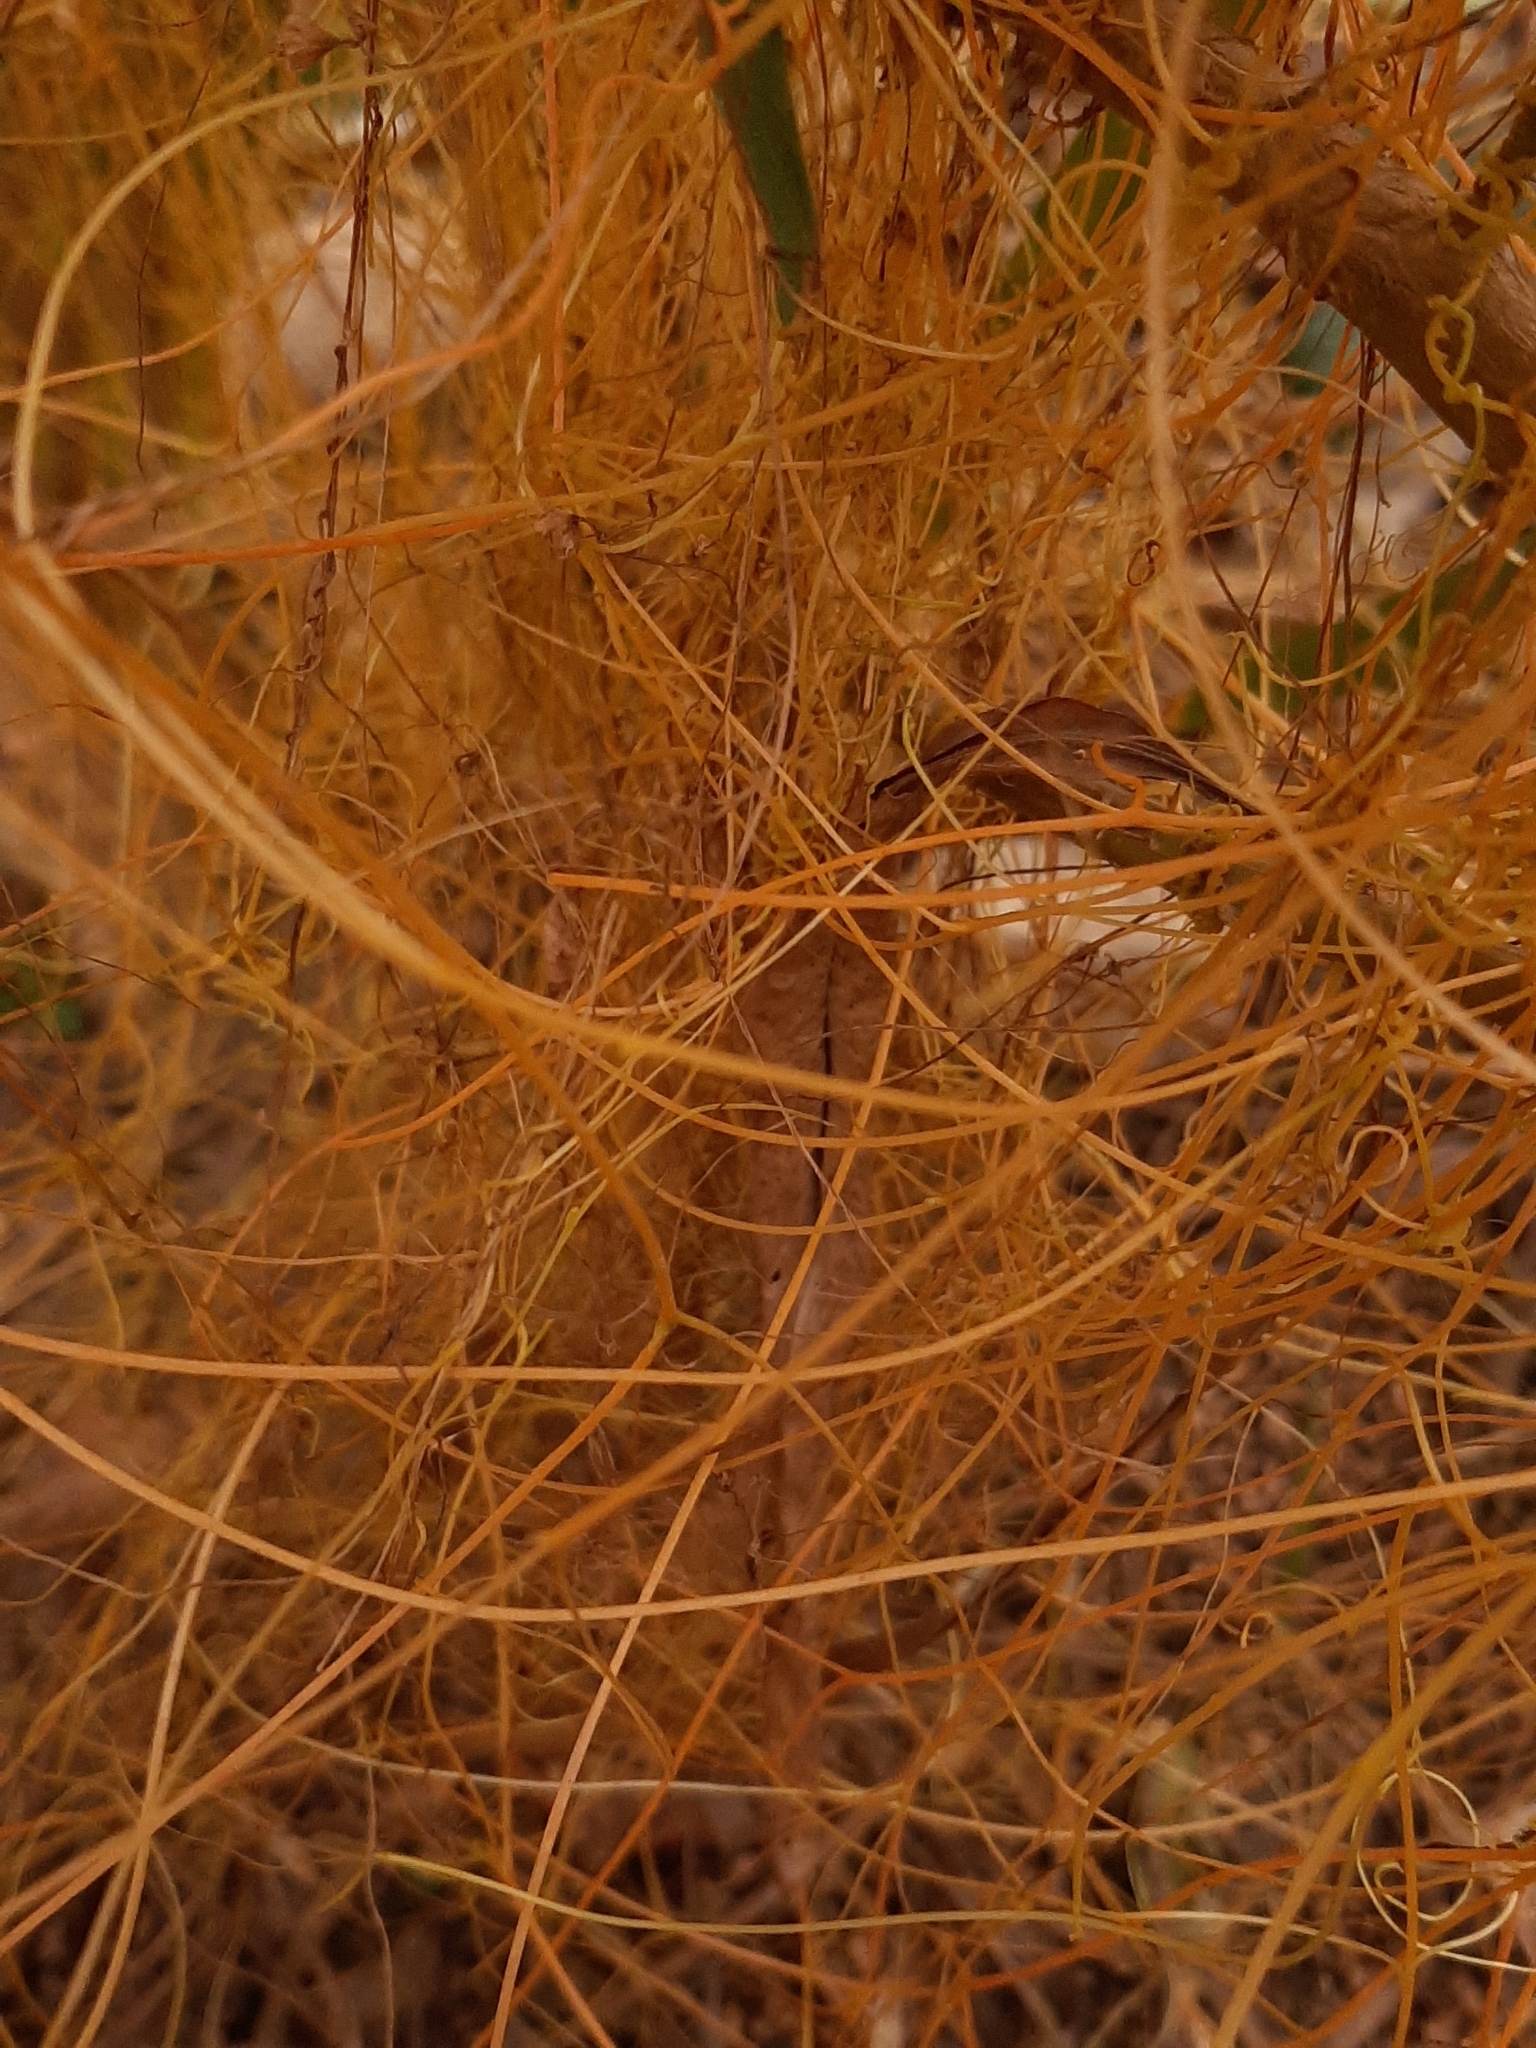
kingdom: Plantae
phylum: Tracheophyta
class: Magnoliopsida
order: Solanales
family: Convolvulaceae
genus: Cuscuta
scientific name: Cuscuta californica
